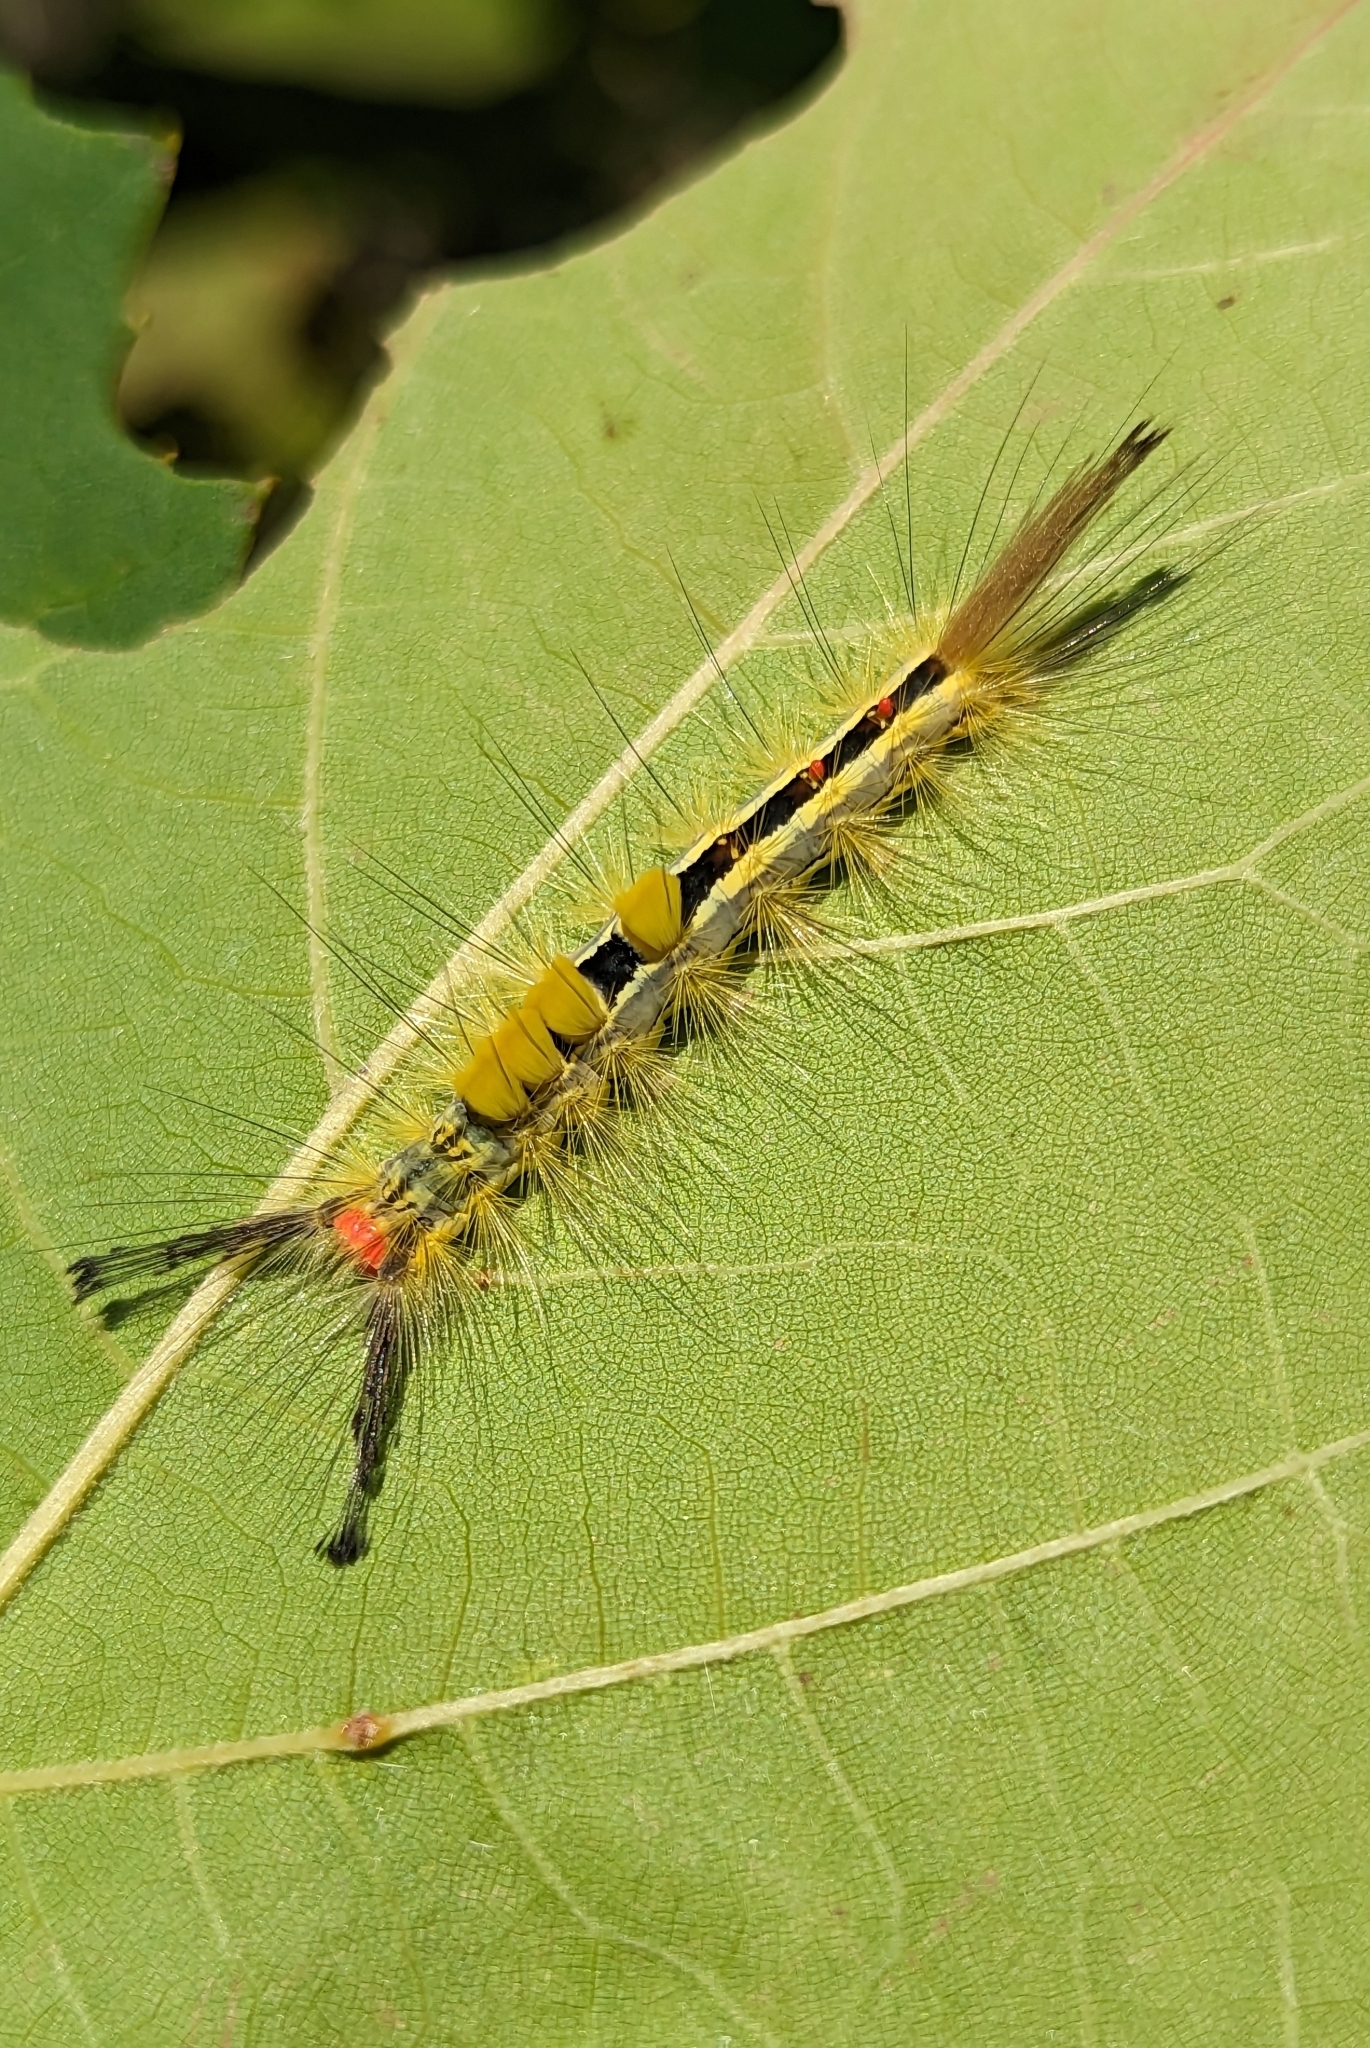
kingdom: Animalia
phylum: Arthropoda
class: Insecta
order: Lepidoptera
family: Erebidae
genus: Orgyia
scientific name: Orgyia leucostigma
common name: White-marked tussock moth
